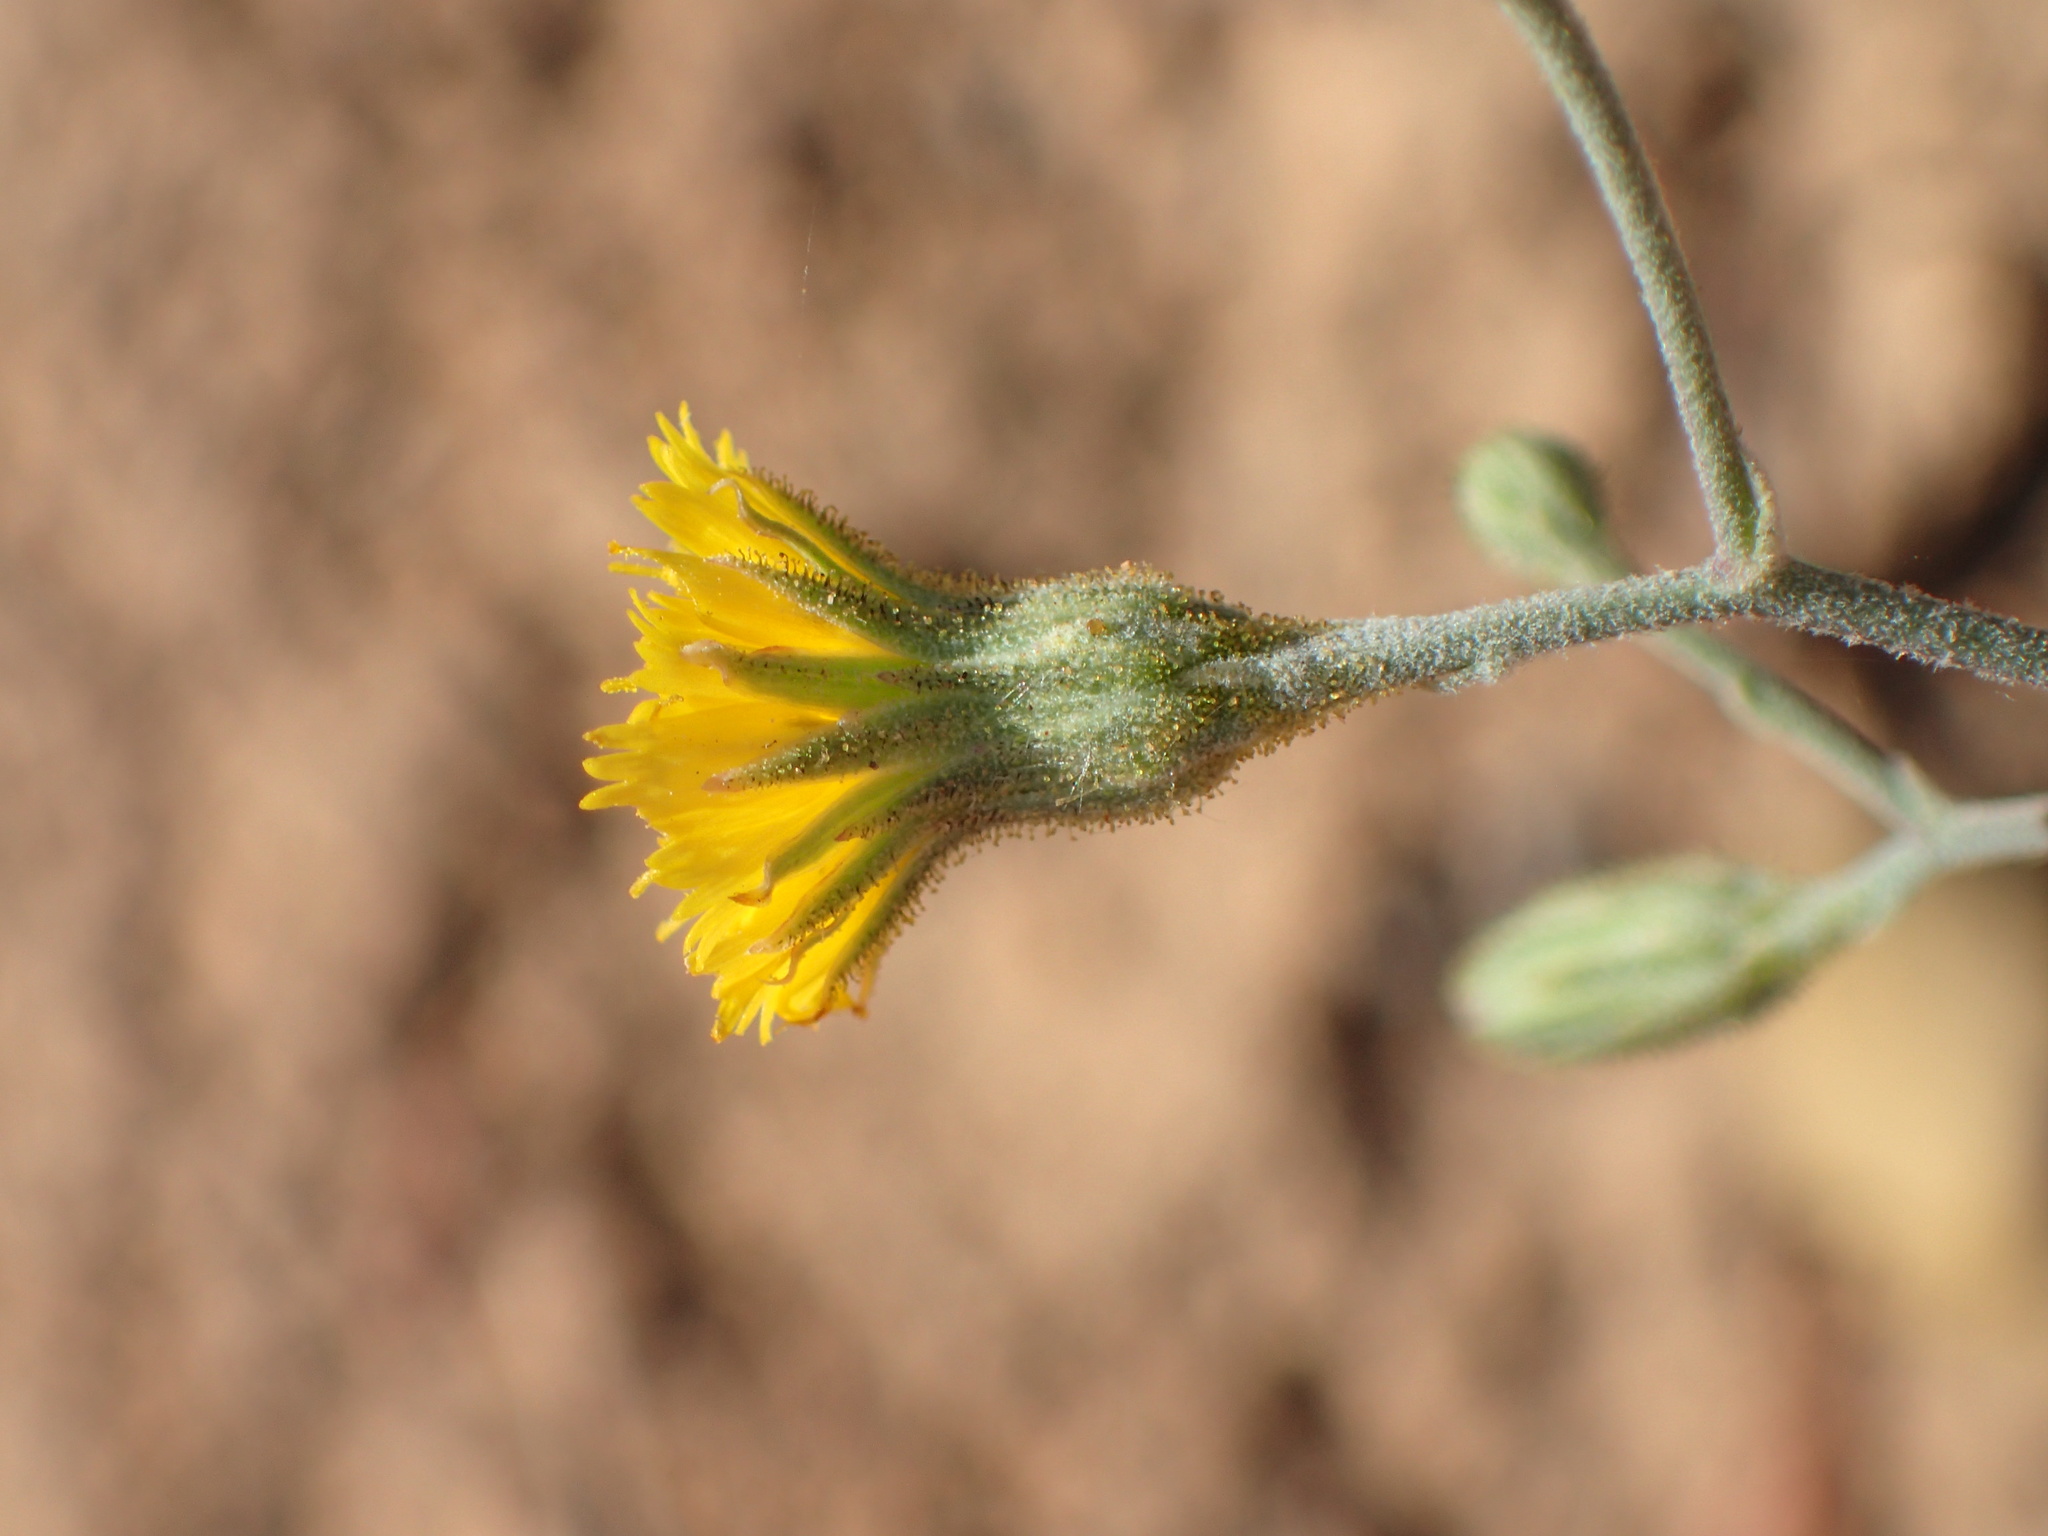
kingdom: Plantae
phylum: Tracheophyta
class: Magnoliopsida
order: Asterales
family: Asteraceae
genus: Hieracium
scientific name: Hieracium argutum
